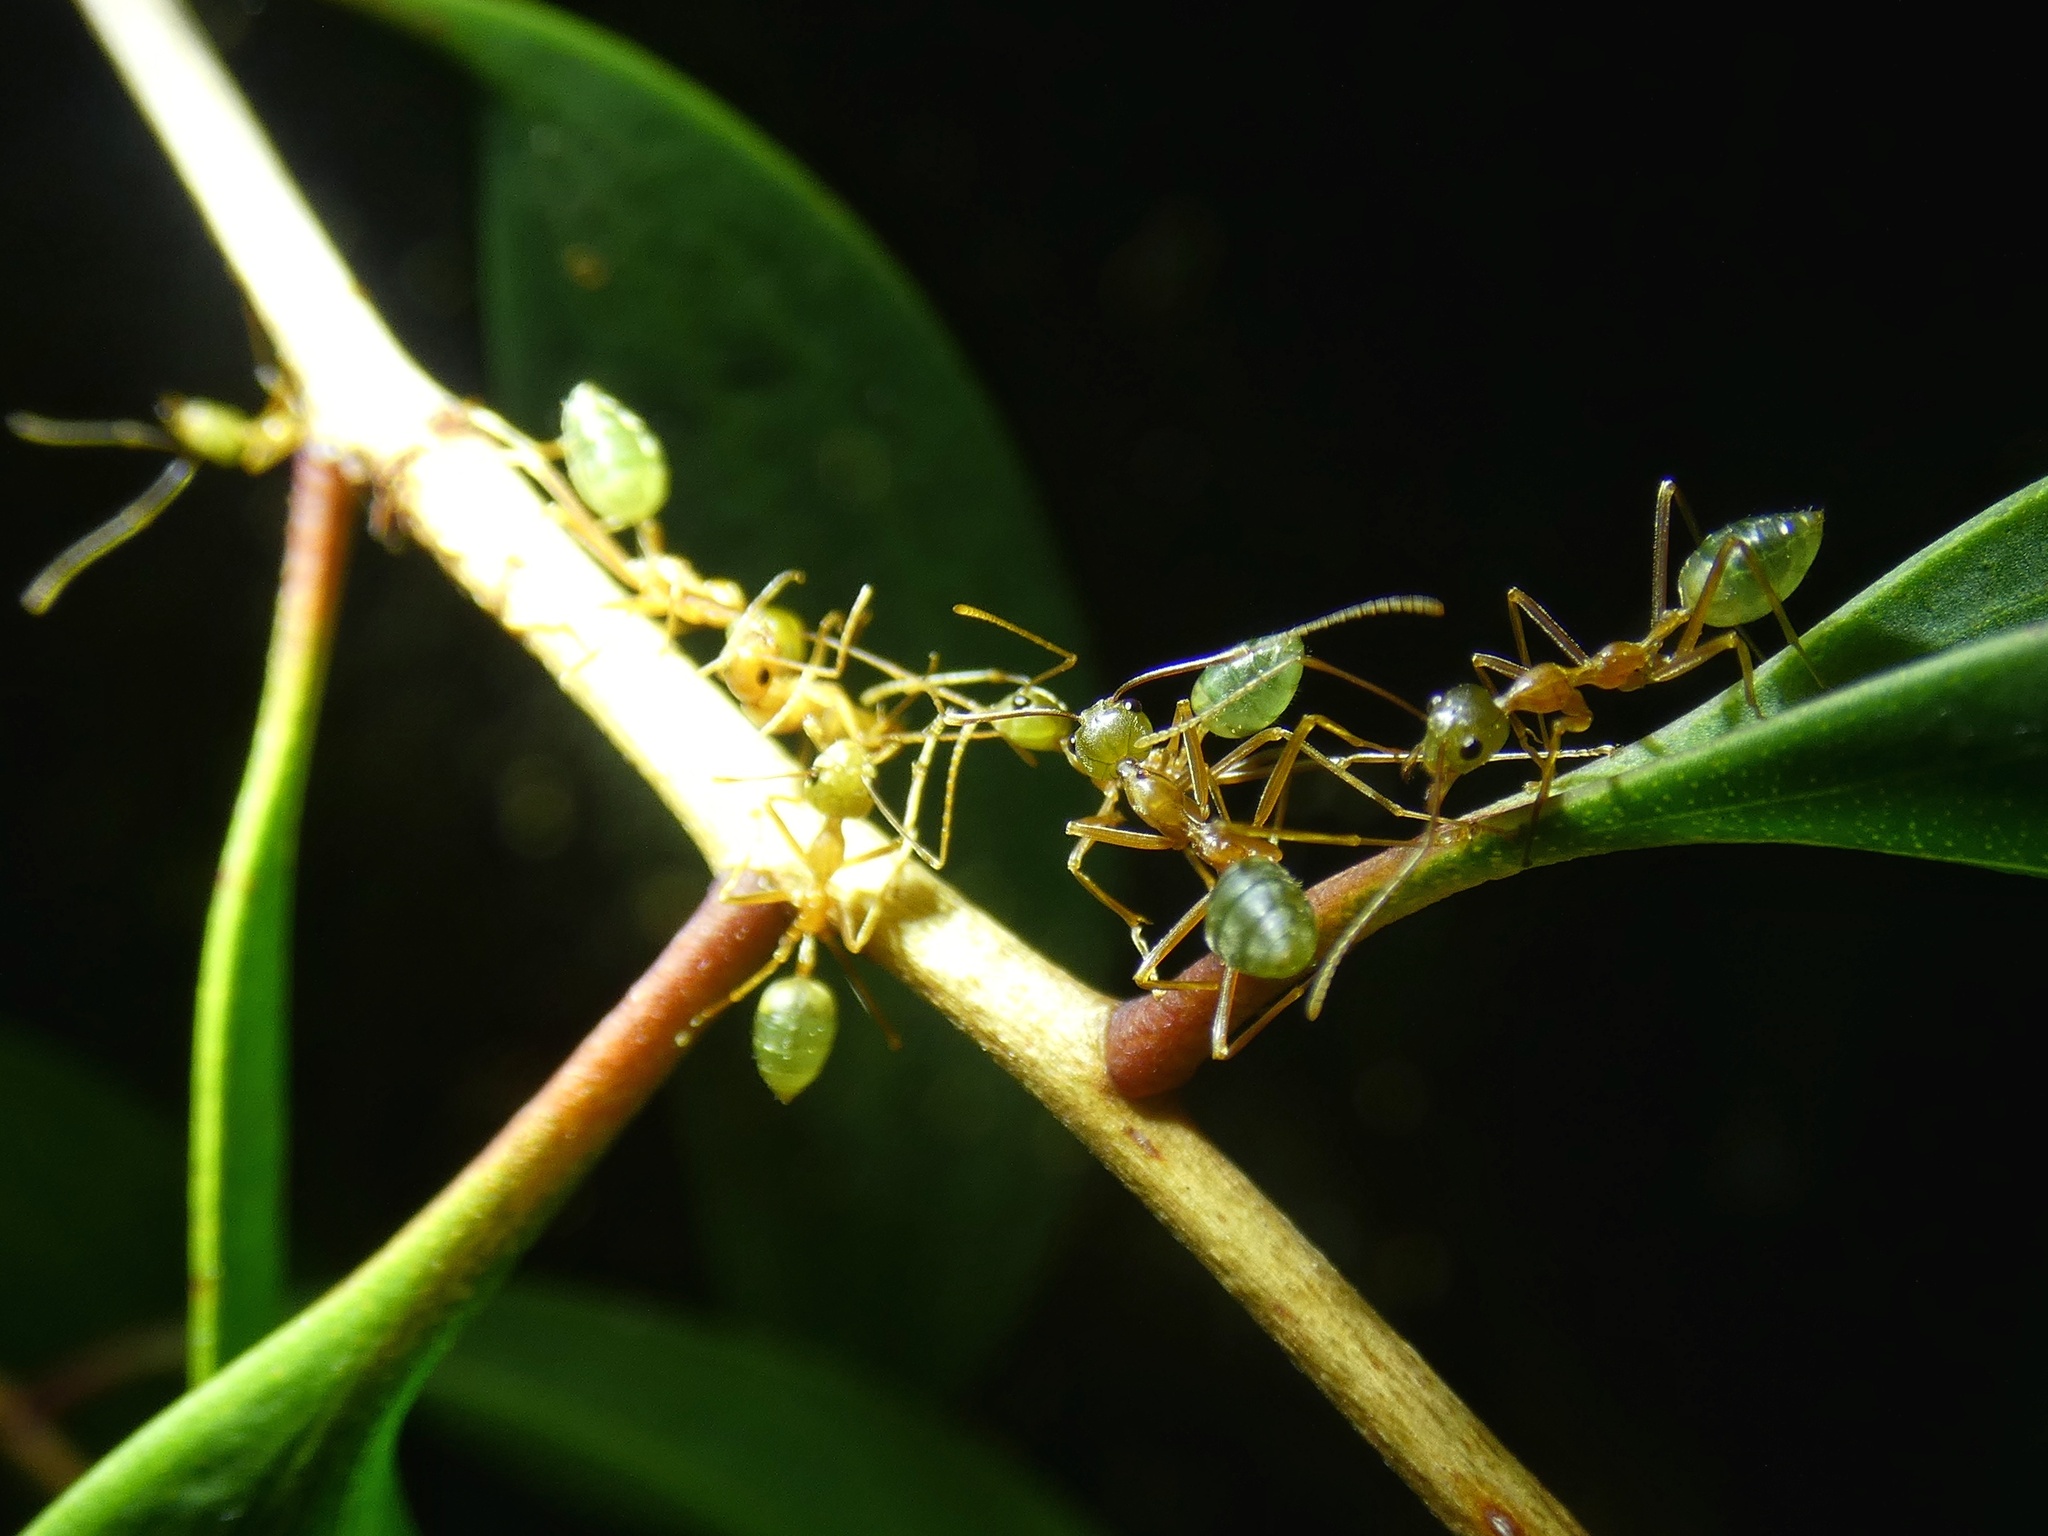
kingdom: Animalia
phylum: Arthropoda
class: Insecta
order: Hymenoptera
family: Formicidae
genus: Oecophylla
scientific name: Oecophylla smaragdina
